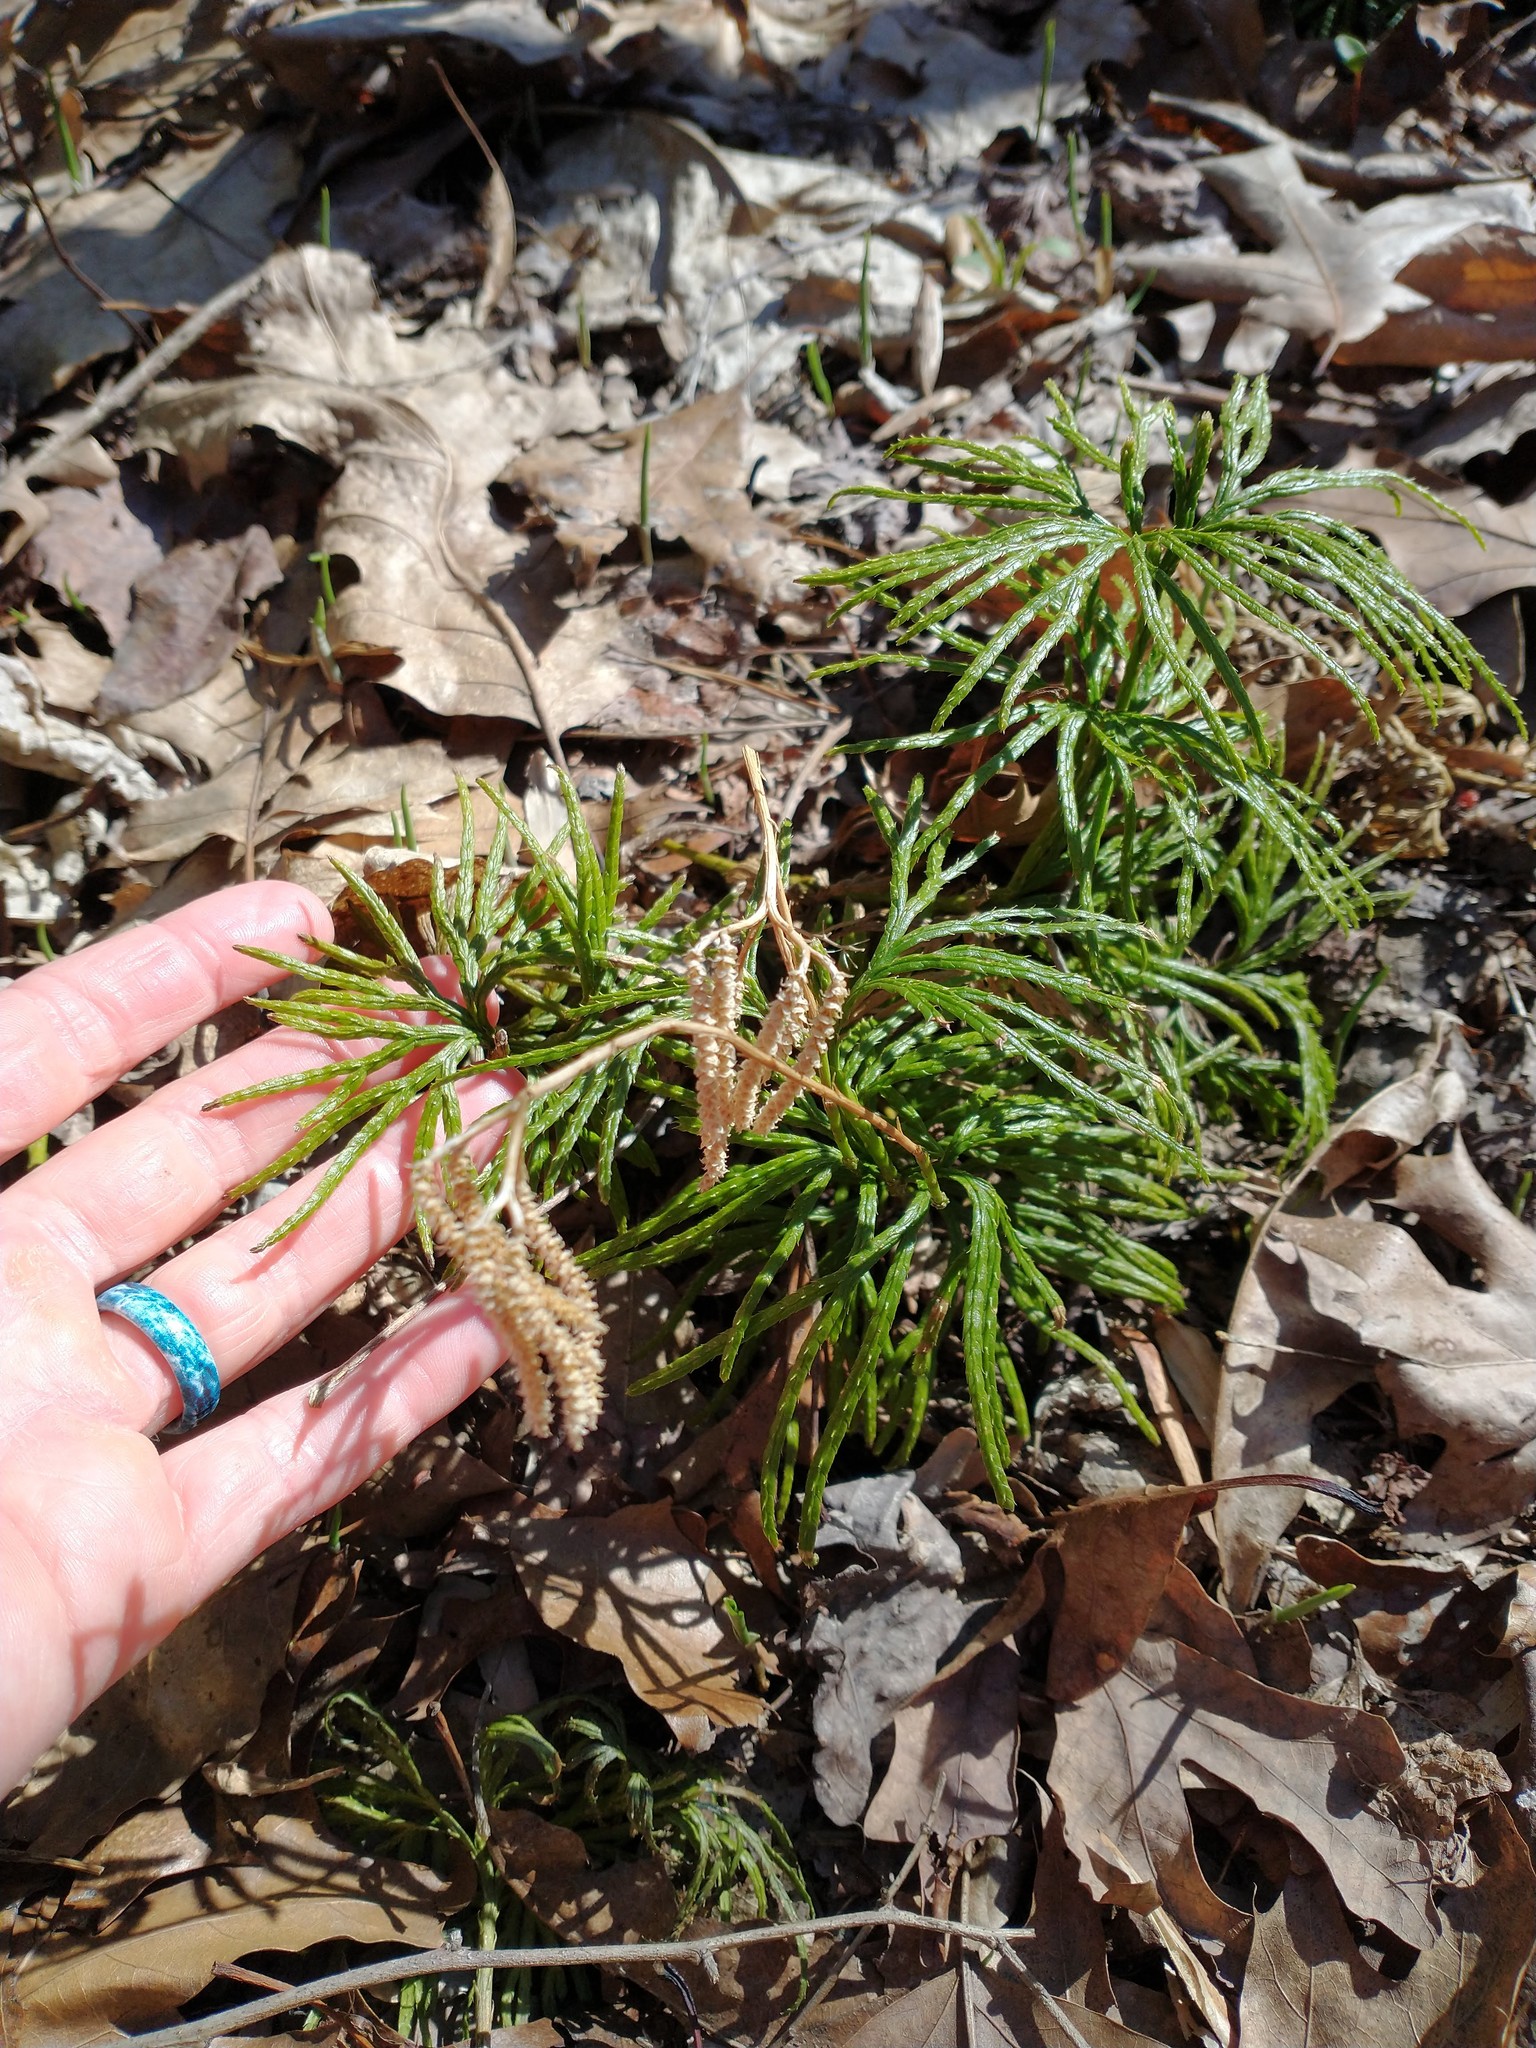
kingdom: Plantae
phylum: Tracheophyta
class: Lycopodiopsida
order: Lycopodiales
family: Lycopodiaceae
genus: Diphasiastrum
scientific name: Diphasiastrum digitatum
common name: Southern running-pine
